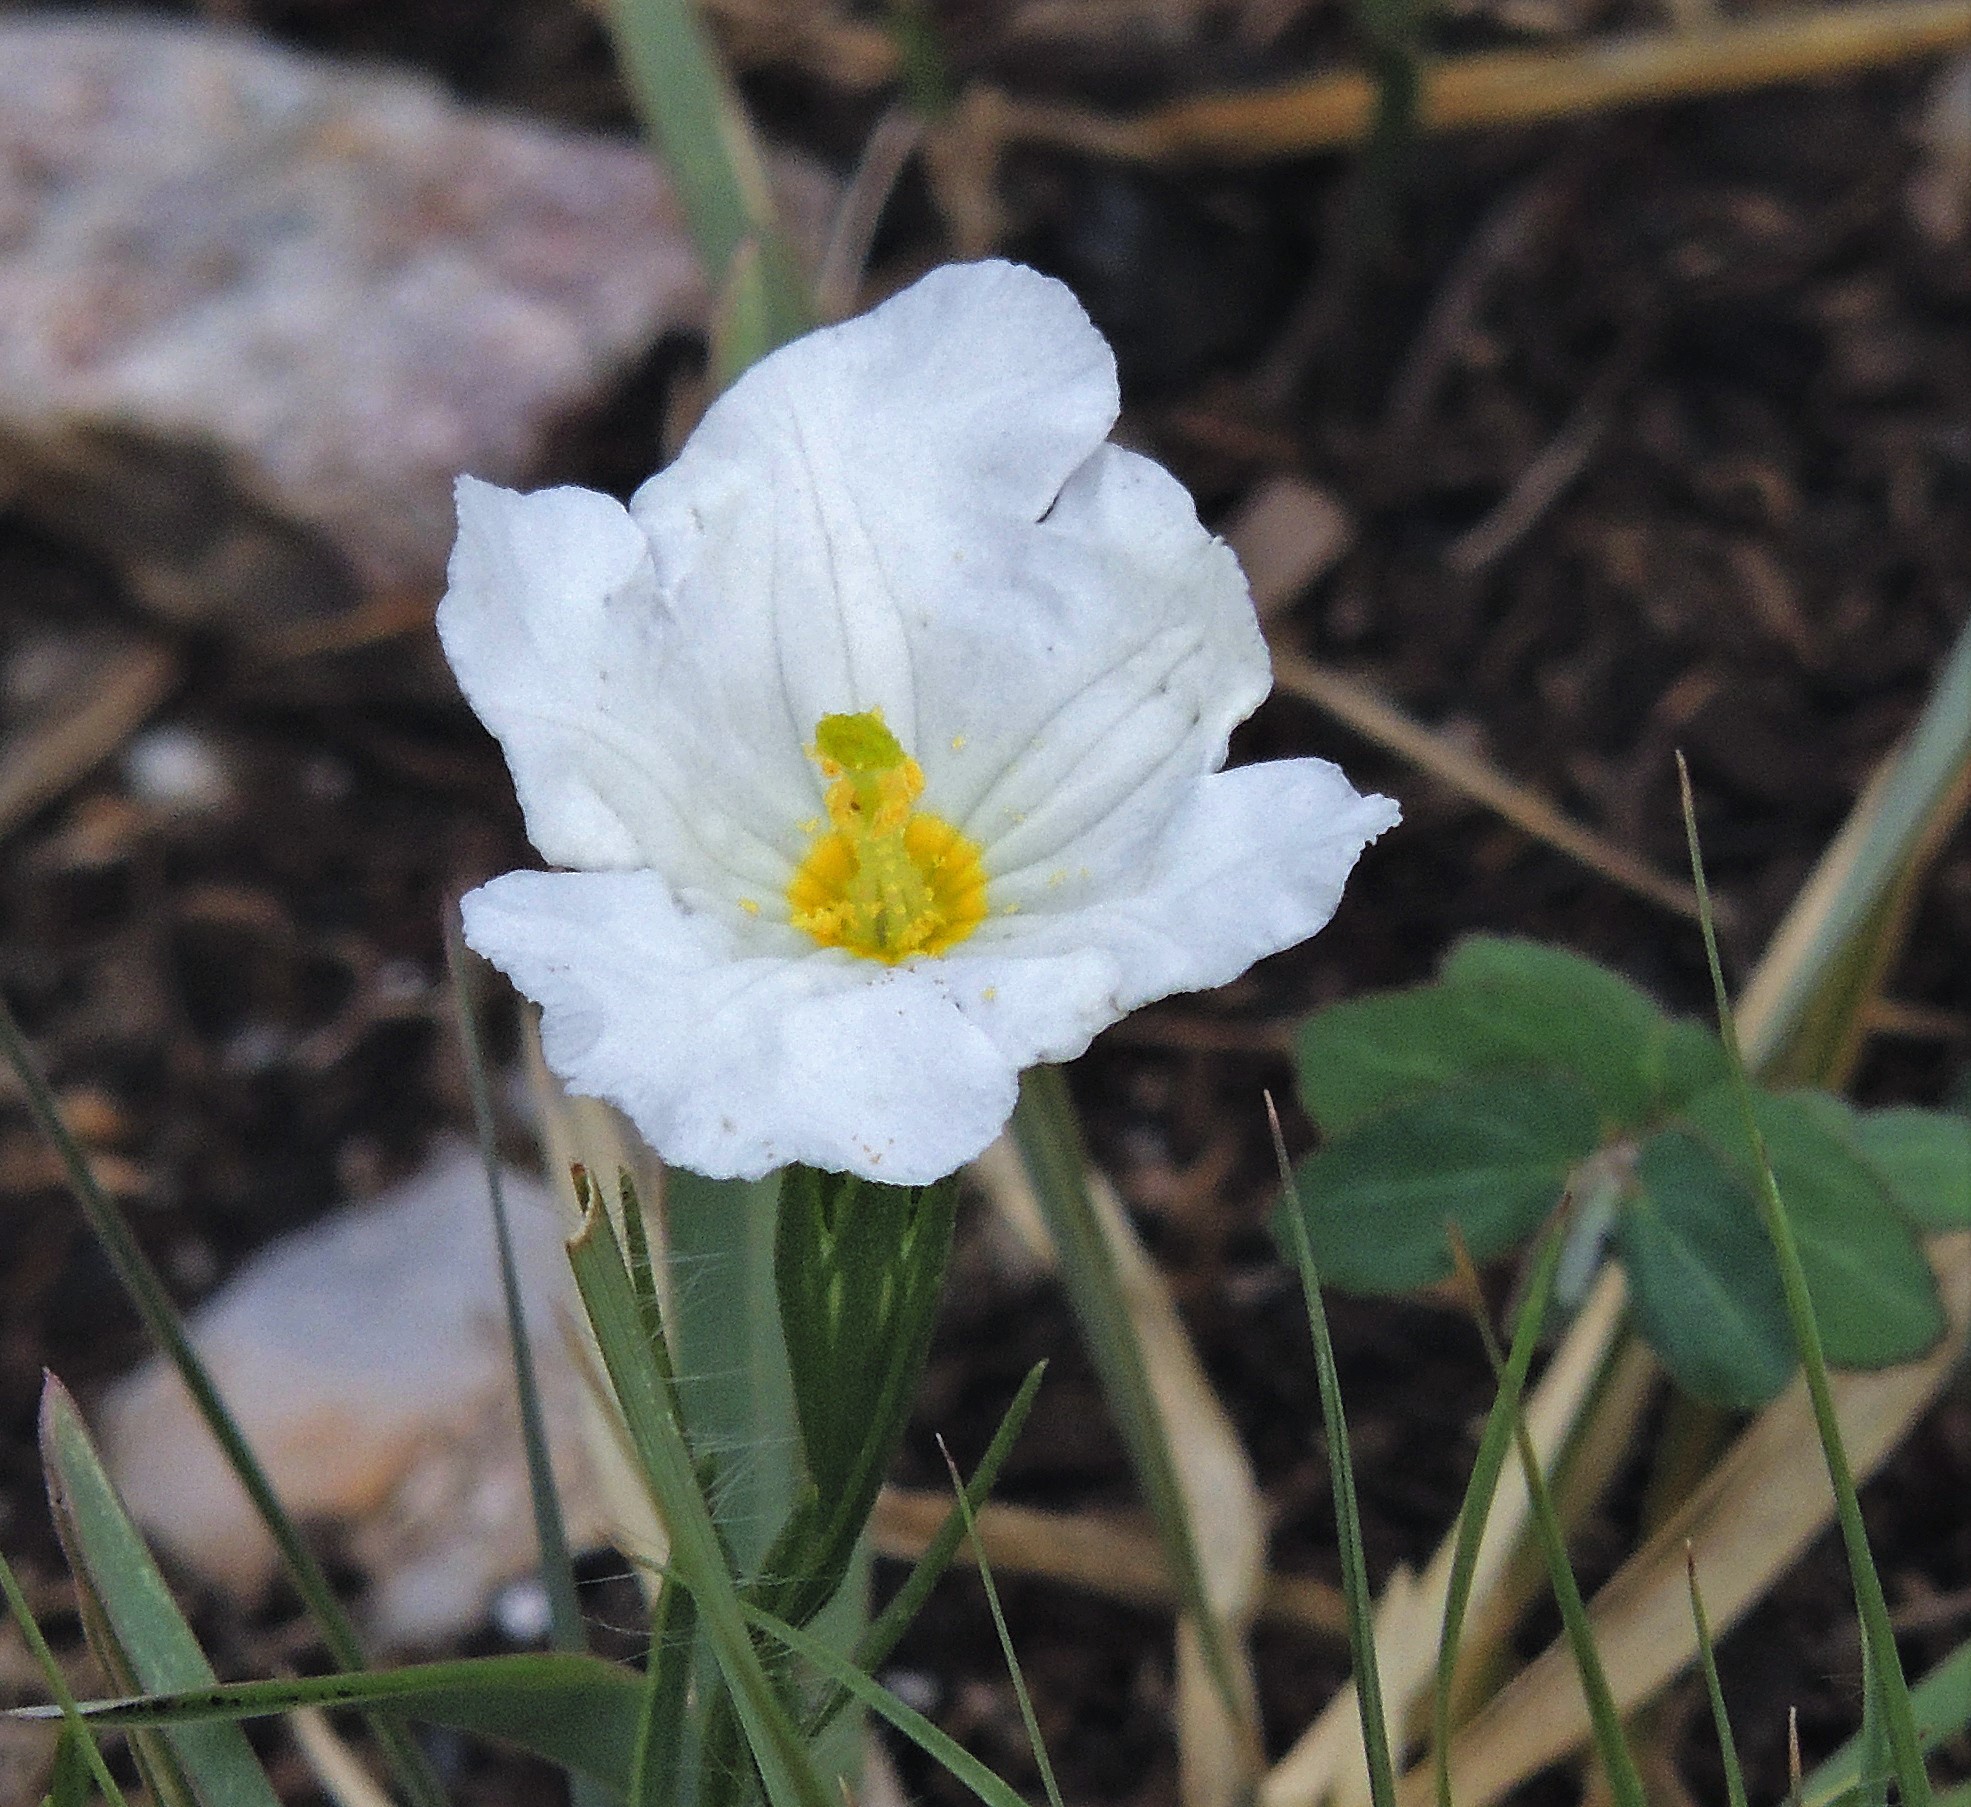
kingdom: Plantae
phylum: Tracheophyta
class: Magnoliopsida
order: Solanales
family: Solanaceae
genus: Nierembergia
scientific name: Nierembergia rigida
